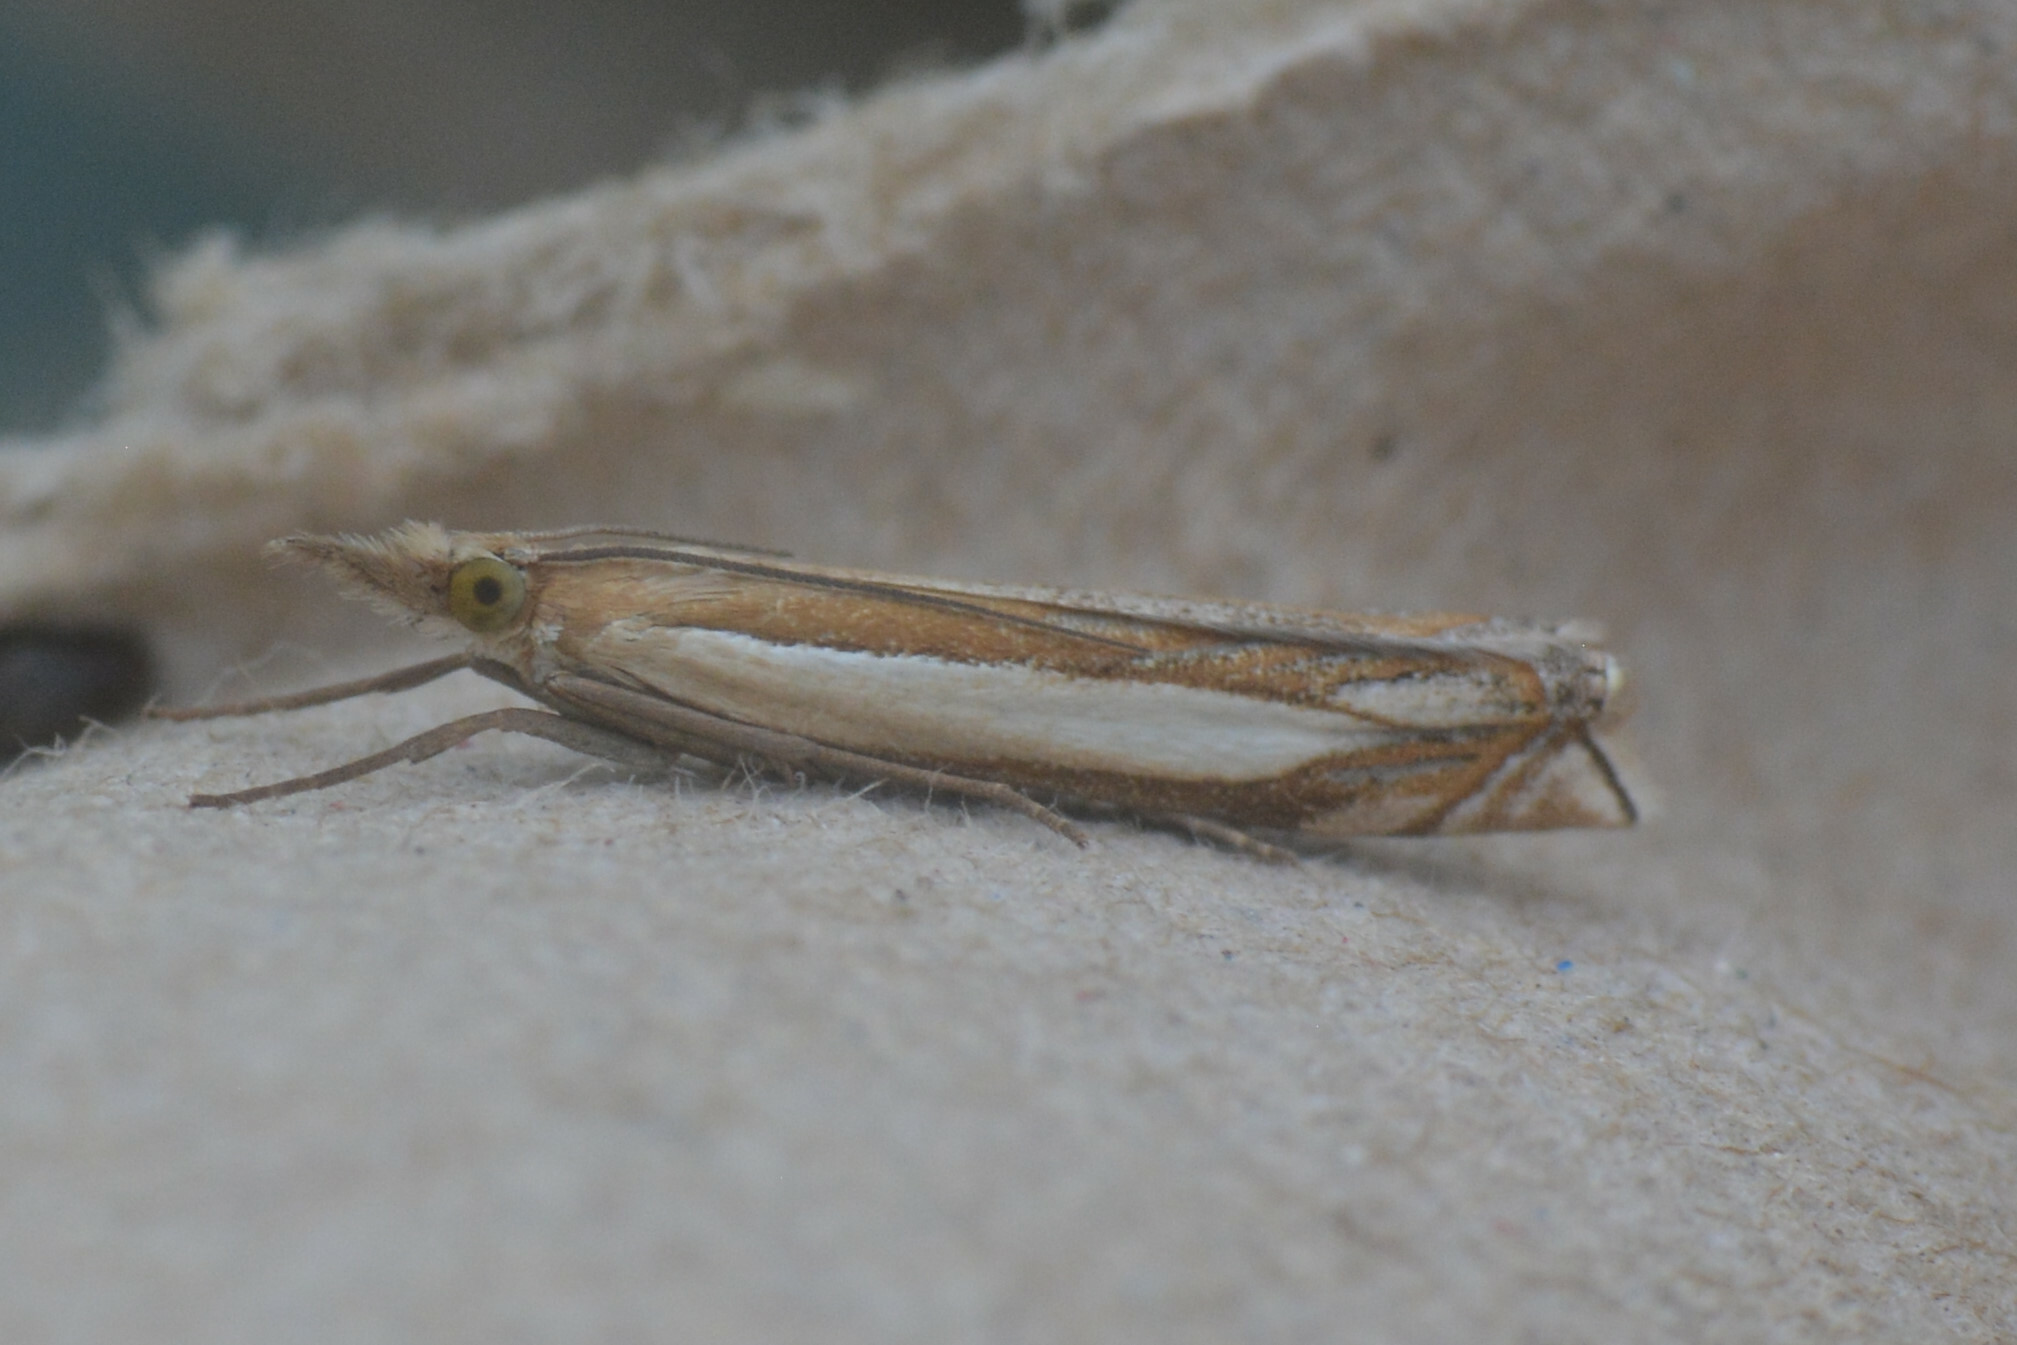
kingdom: Animalia
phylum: Arthropoda
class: Insecta
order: Lepidoptera
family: Crambidae
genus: Crambus
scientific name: Crambus pascuella
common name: Inlaid grass-veneer
